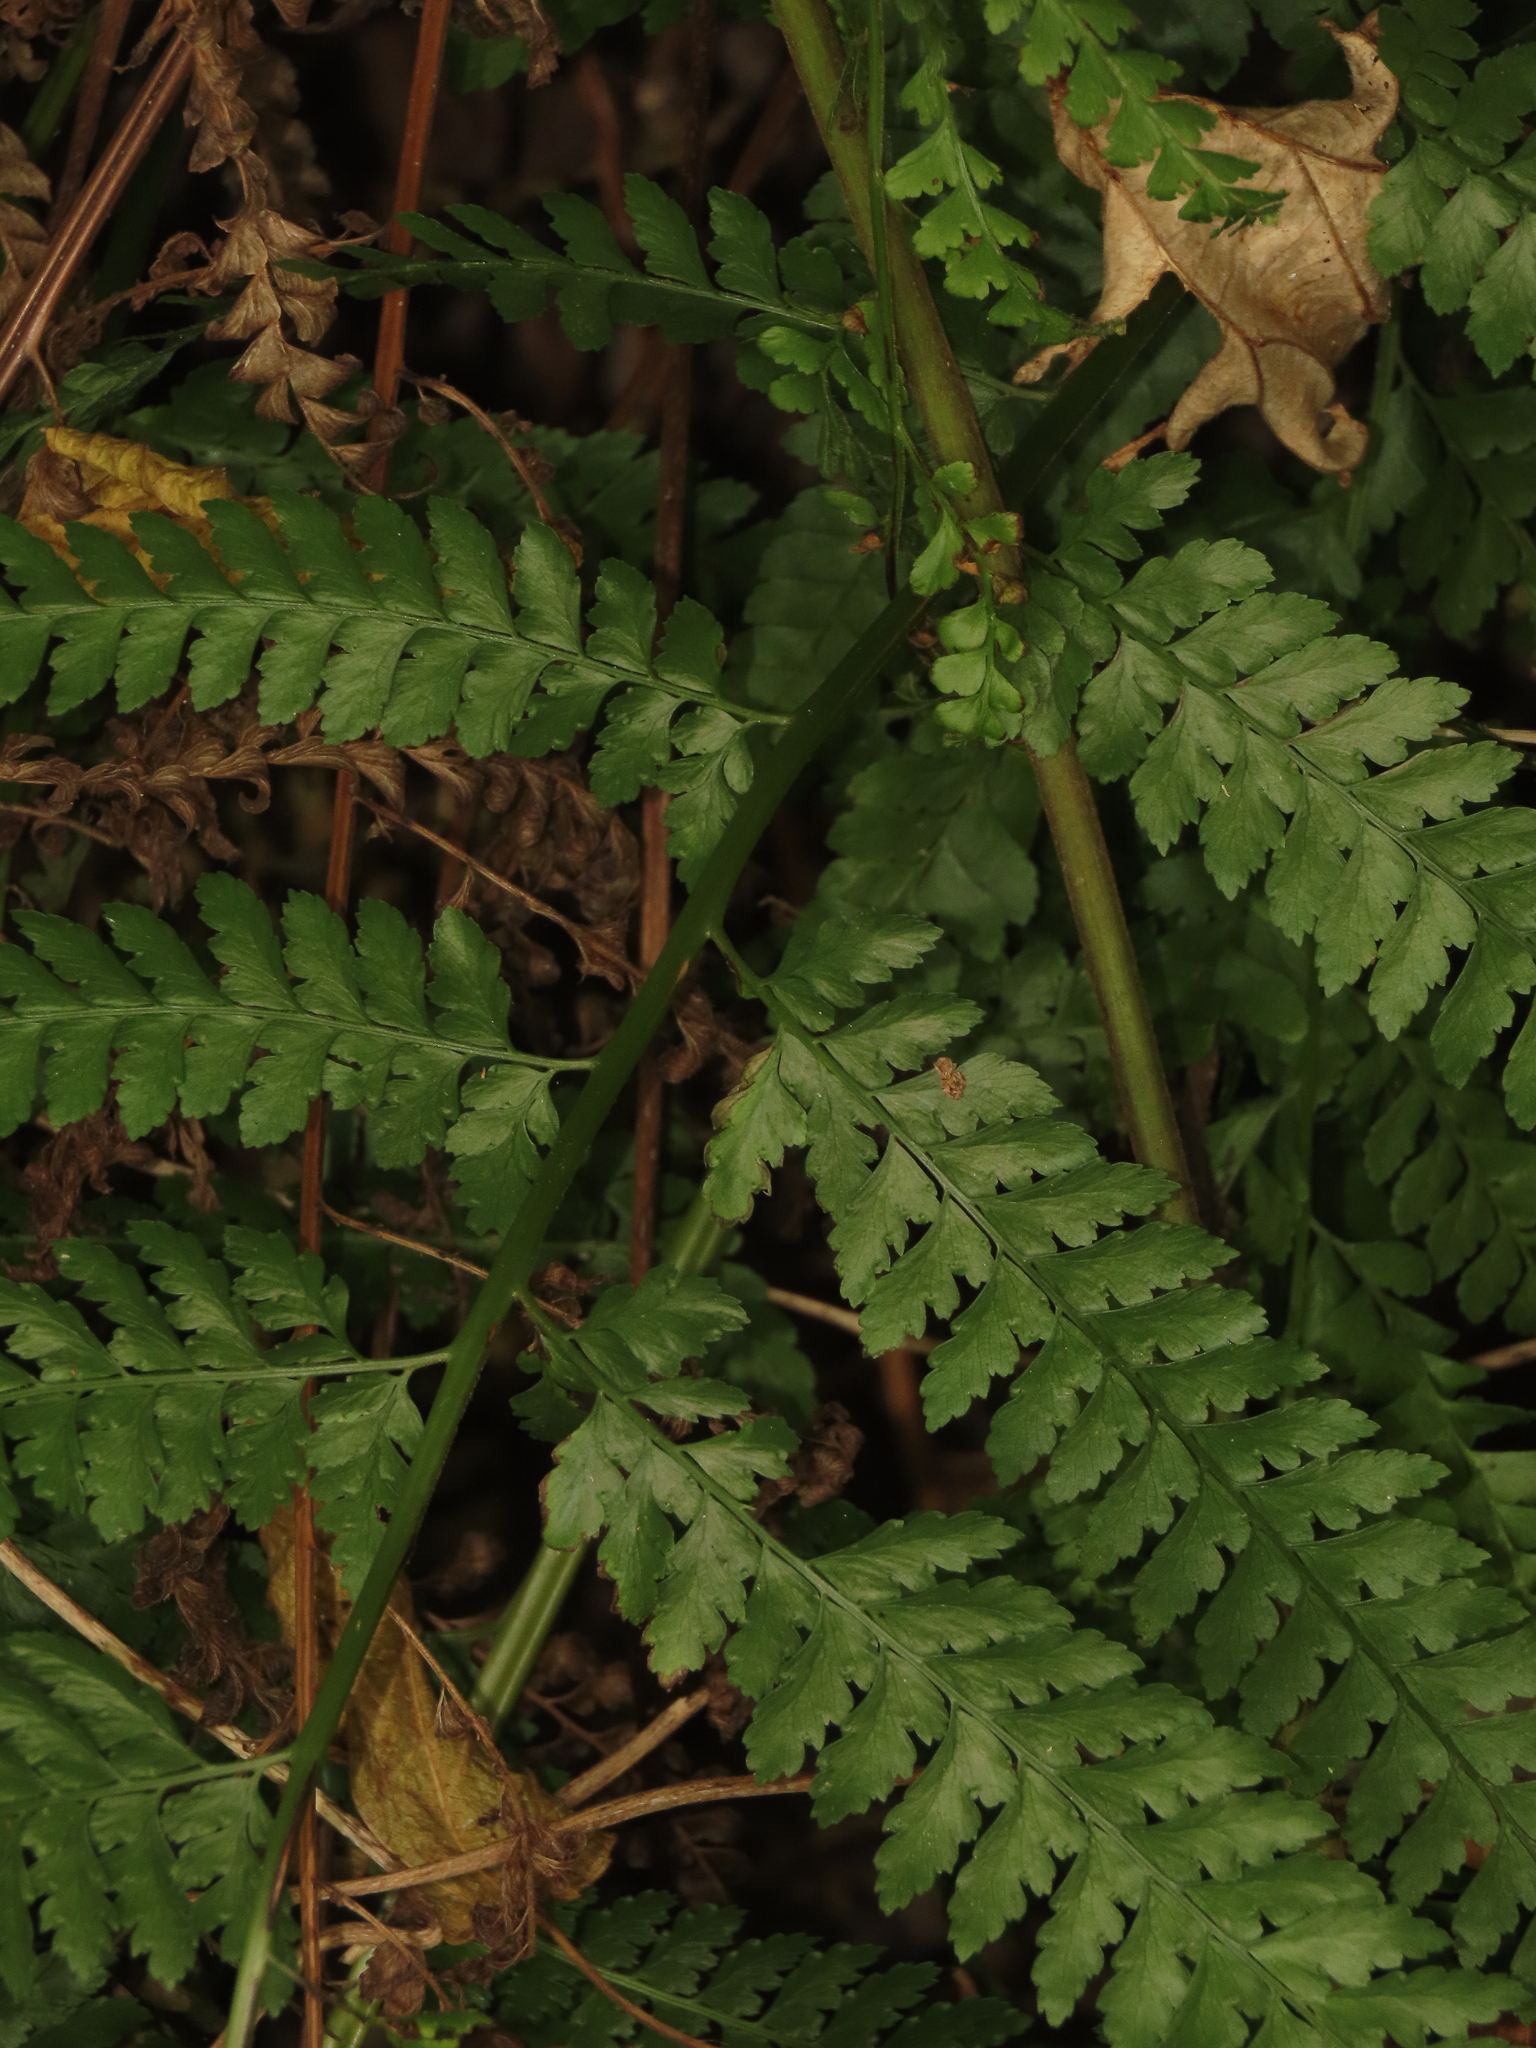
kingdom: Plantae
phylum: Tracheophyta
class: Polypodiopsida
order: Polypodiales
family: Dennstaedtiaceae
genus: Microlepia
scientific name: Microlepia strigosa
